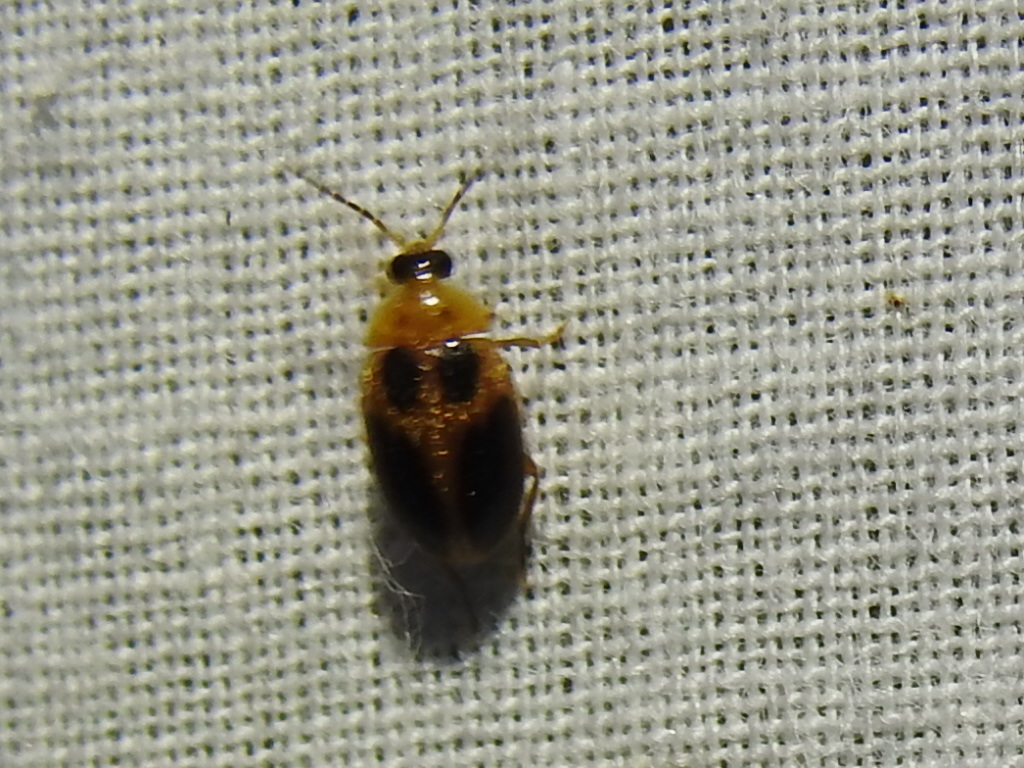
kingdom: Animalia
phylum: Arthropoda
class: Insecta
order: Coleoptera
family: Scirtidae
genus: Sacodes
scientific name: Sacodes pulchella
